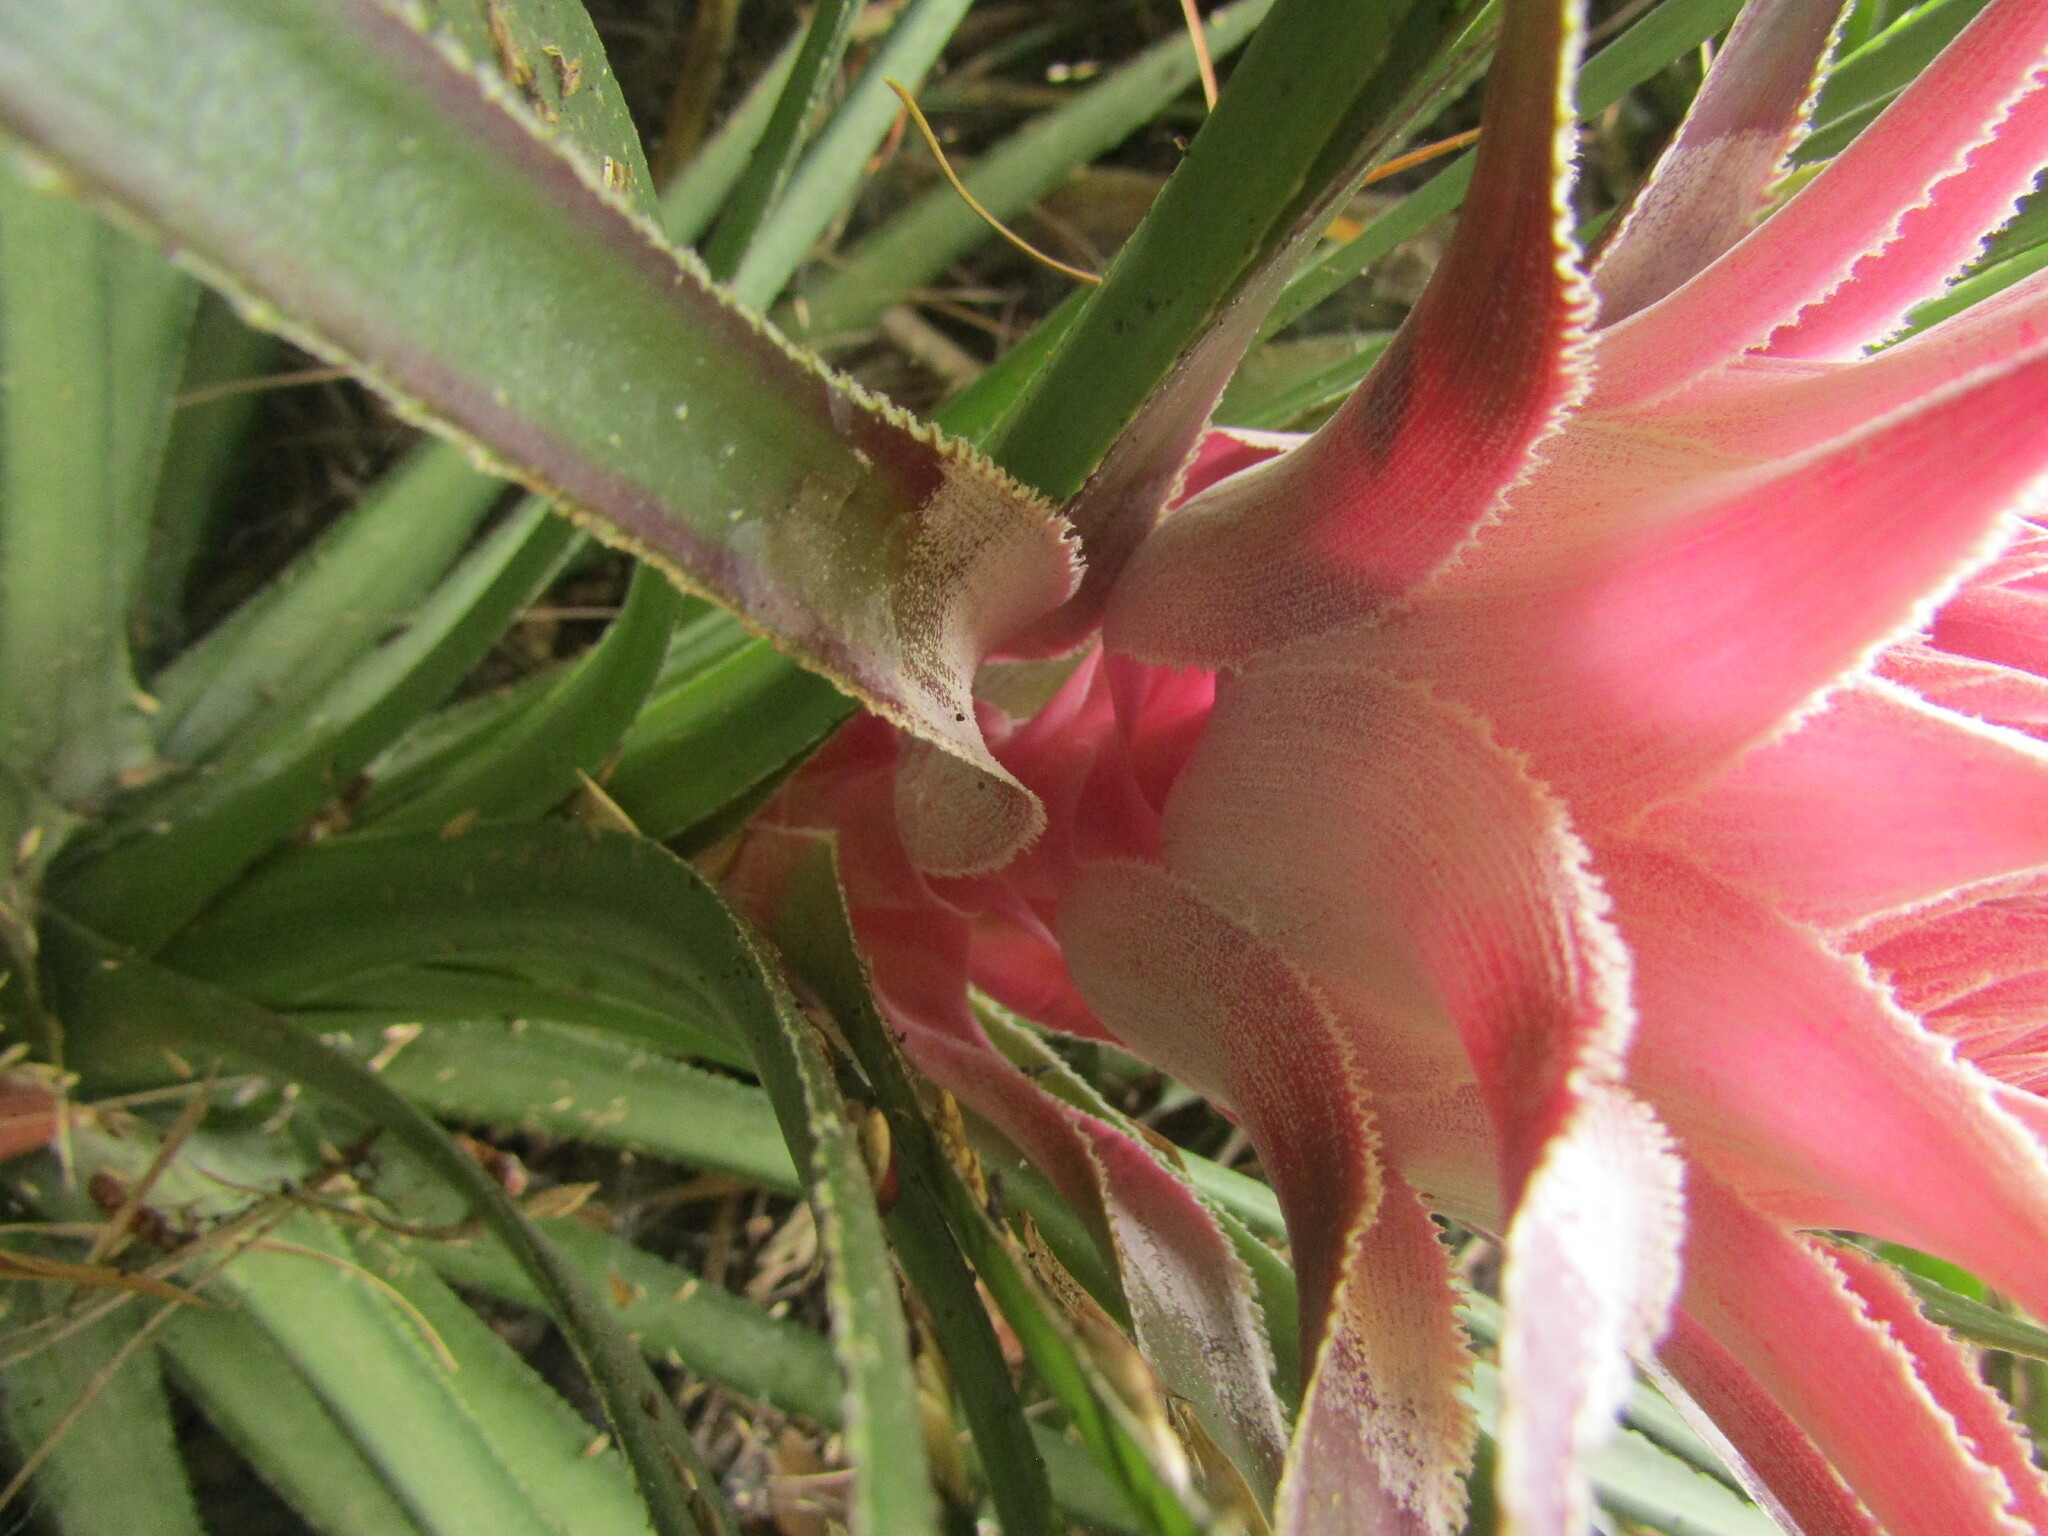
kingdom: Plantae
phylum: Tracheophyta
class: Liliopsida
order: Poales
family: Bromeliaceae
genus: Ochagavia
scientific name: Ochagavia carnea
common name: Tresco rhodostachys
